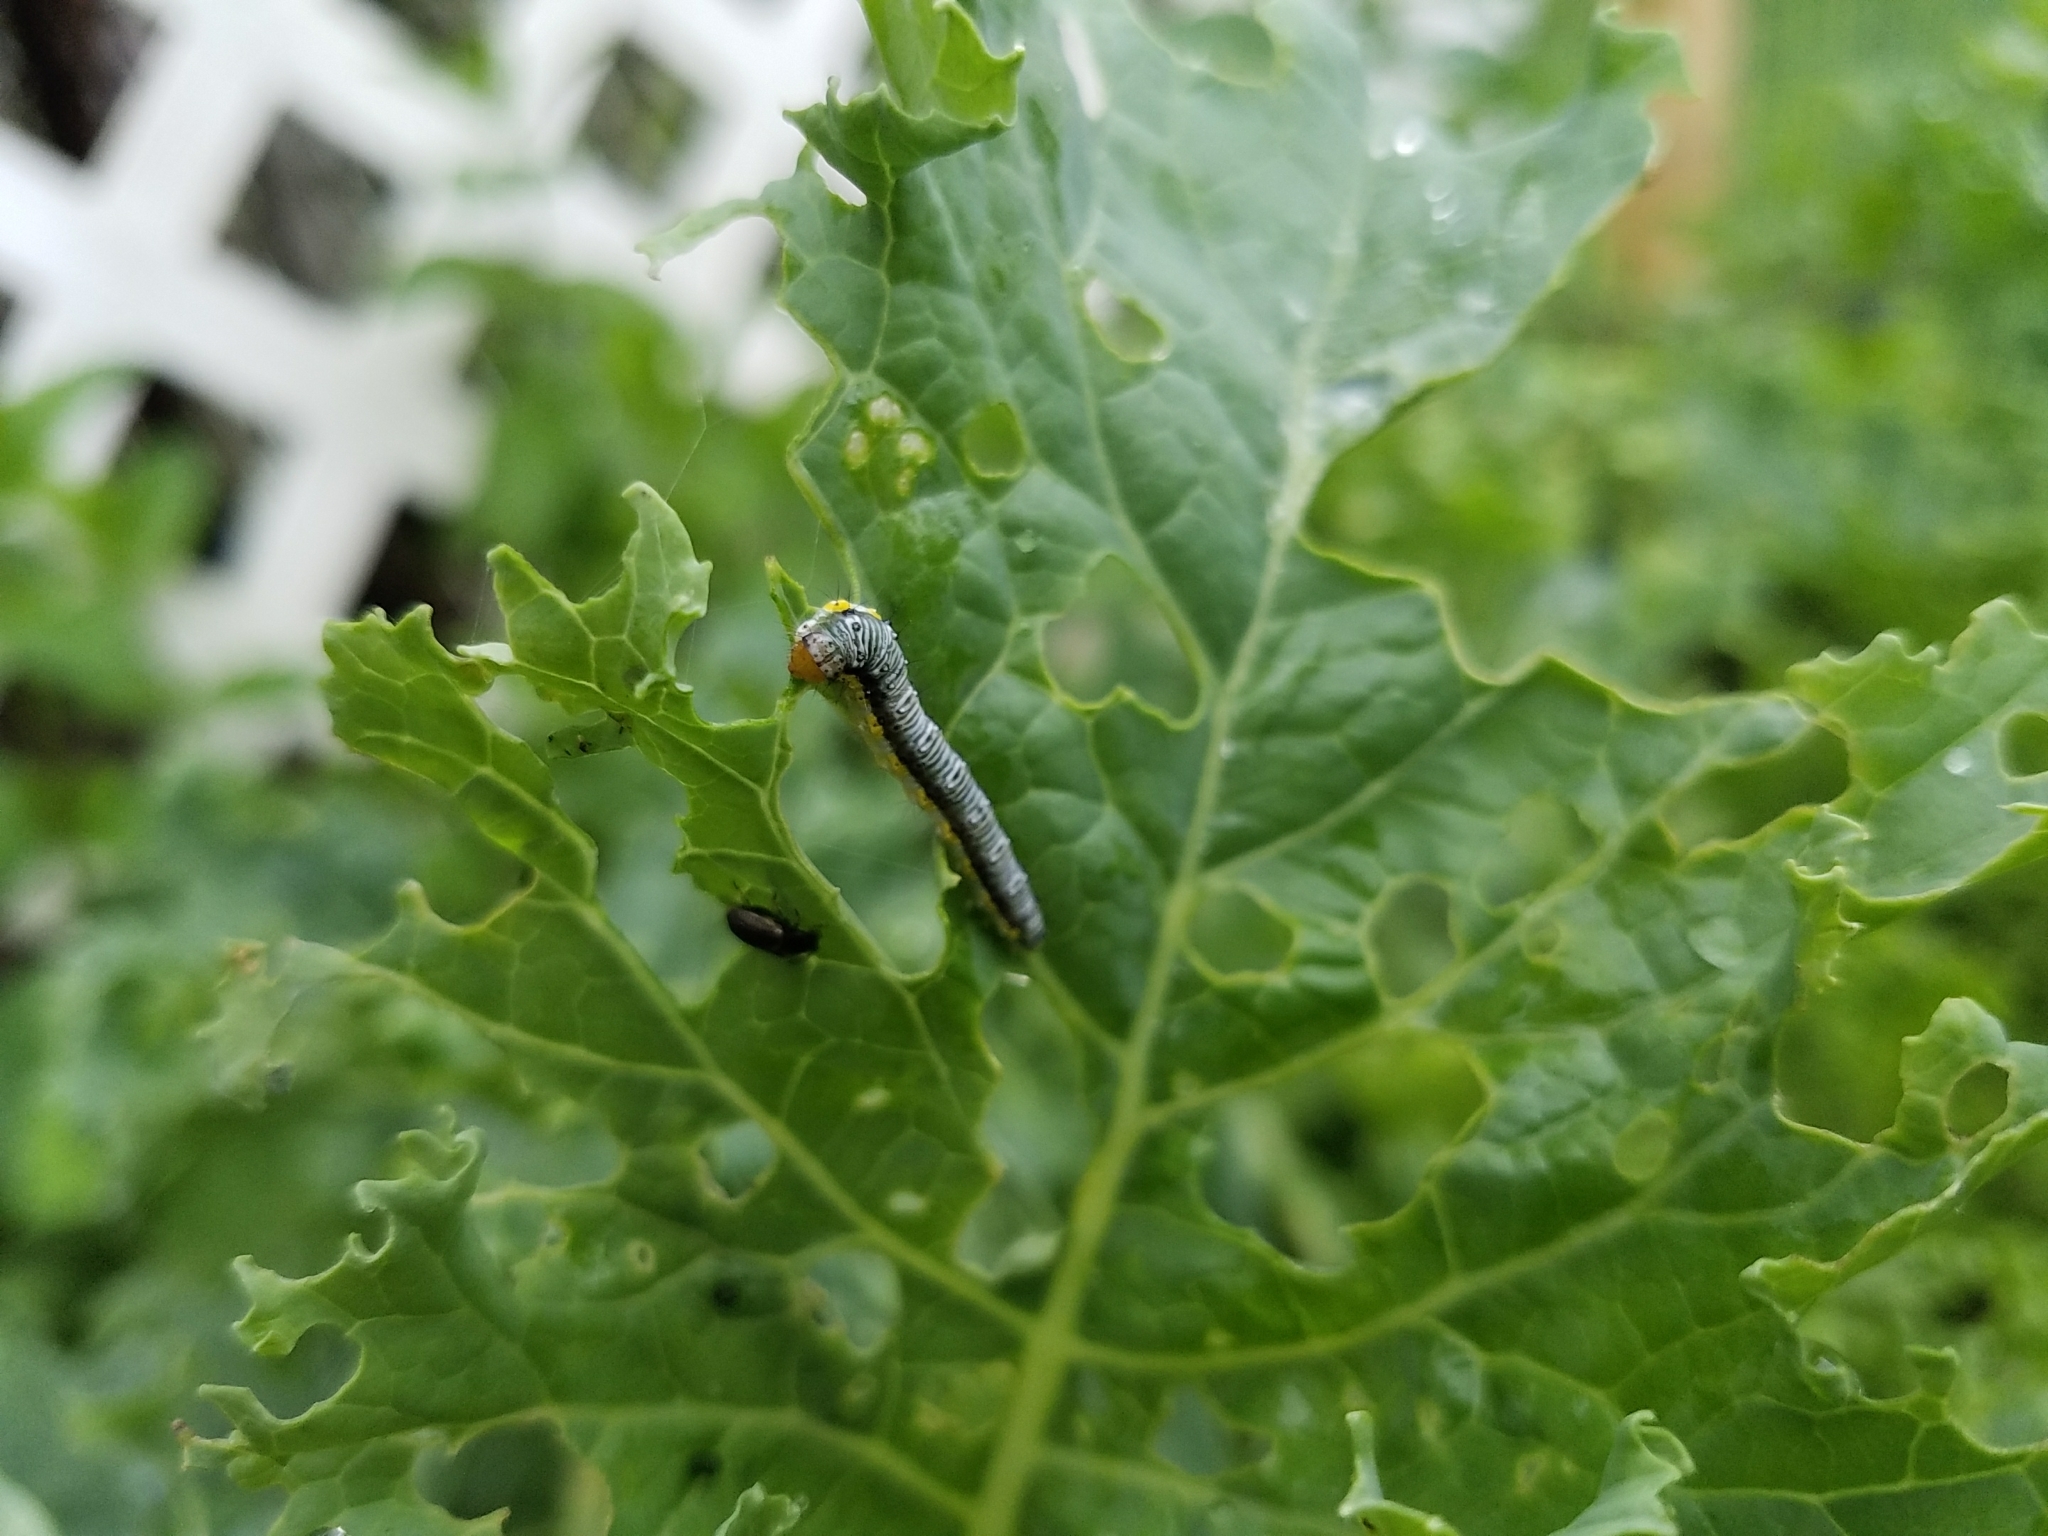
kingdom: Animalia
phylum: Arthropoda
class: Insecta
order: Lepidoptera
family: Crambidae
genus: Evergestis
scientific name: Evergestis rimosalis
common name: Cross-striped cabbageworm moth
